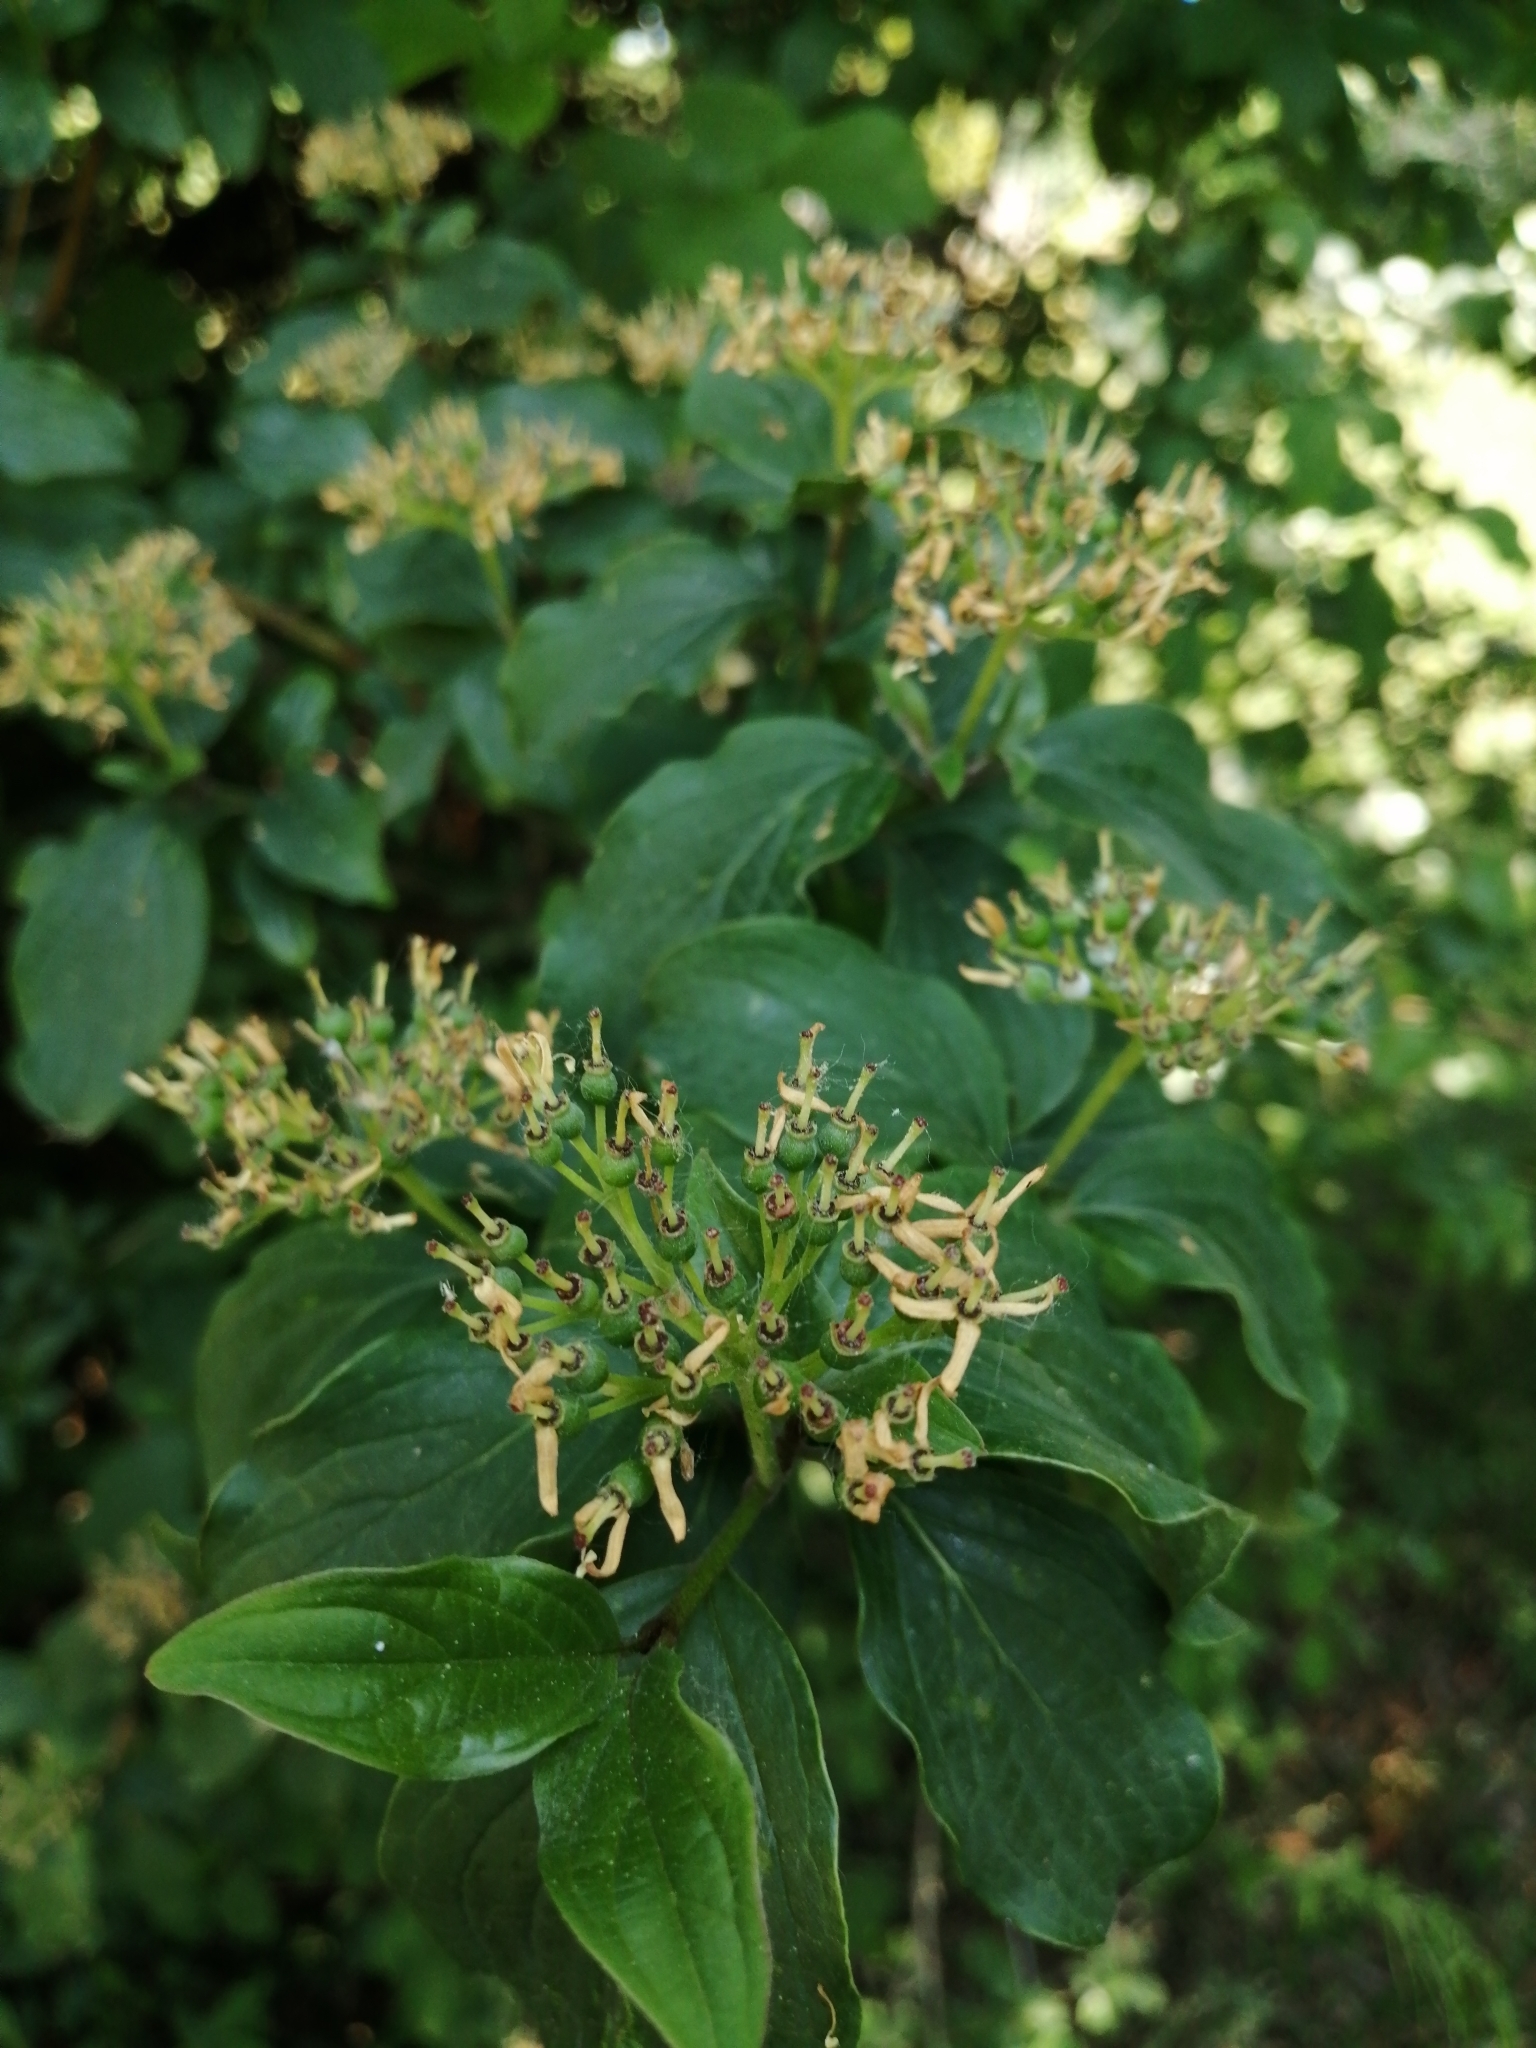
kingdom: Plantae
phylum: Tracheophyta
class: Magnoliopsida
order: Cornales
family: Cornaceae
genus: Cornus
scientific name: Cornus sanguinea
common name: Dogwood
